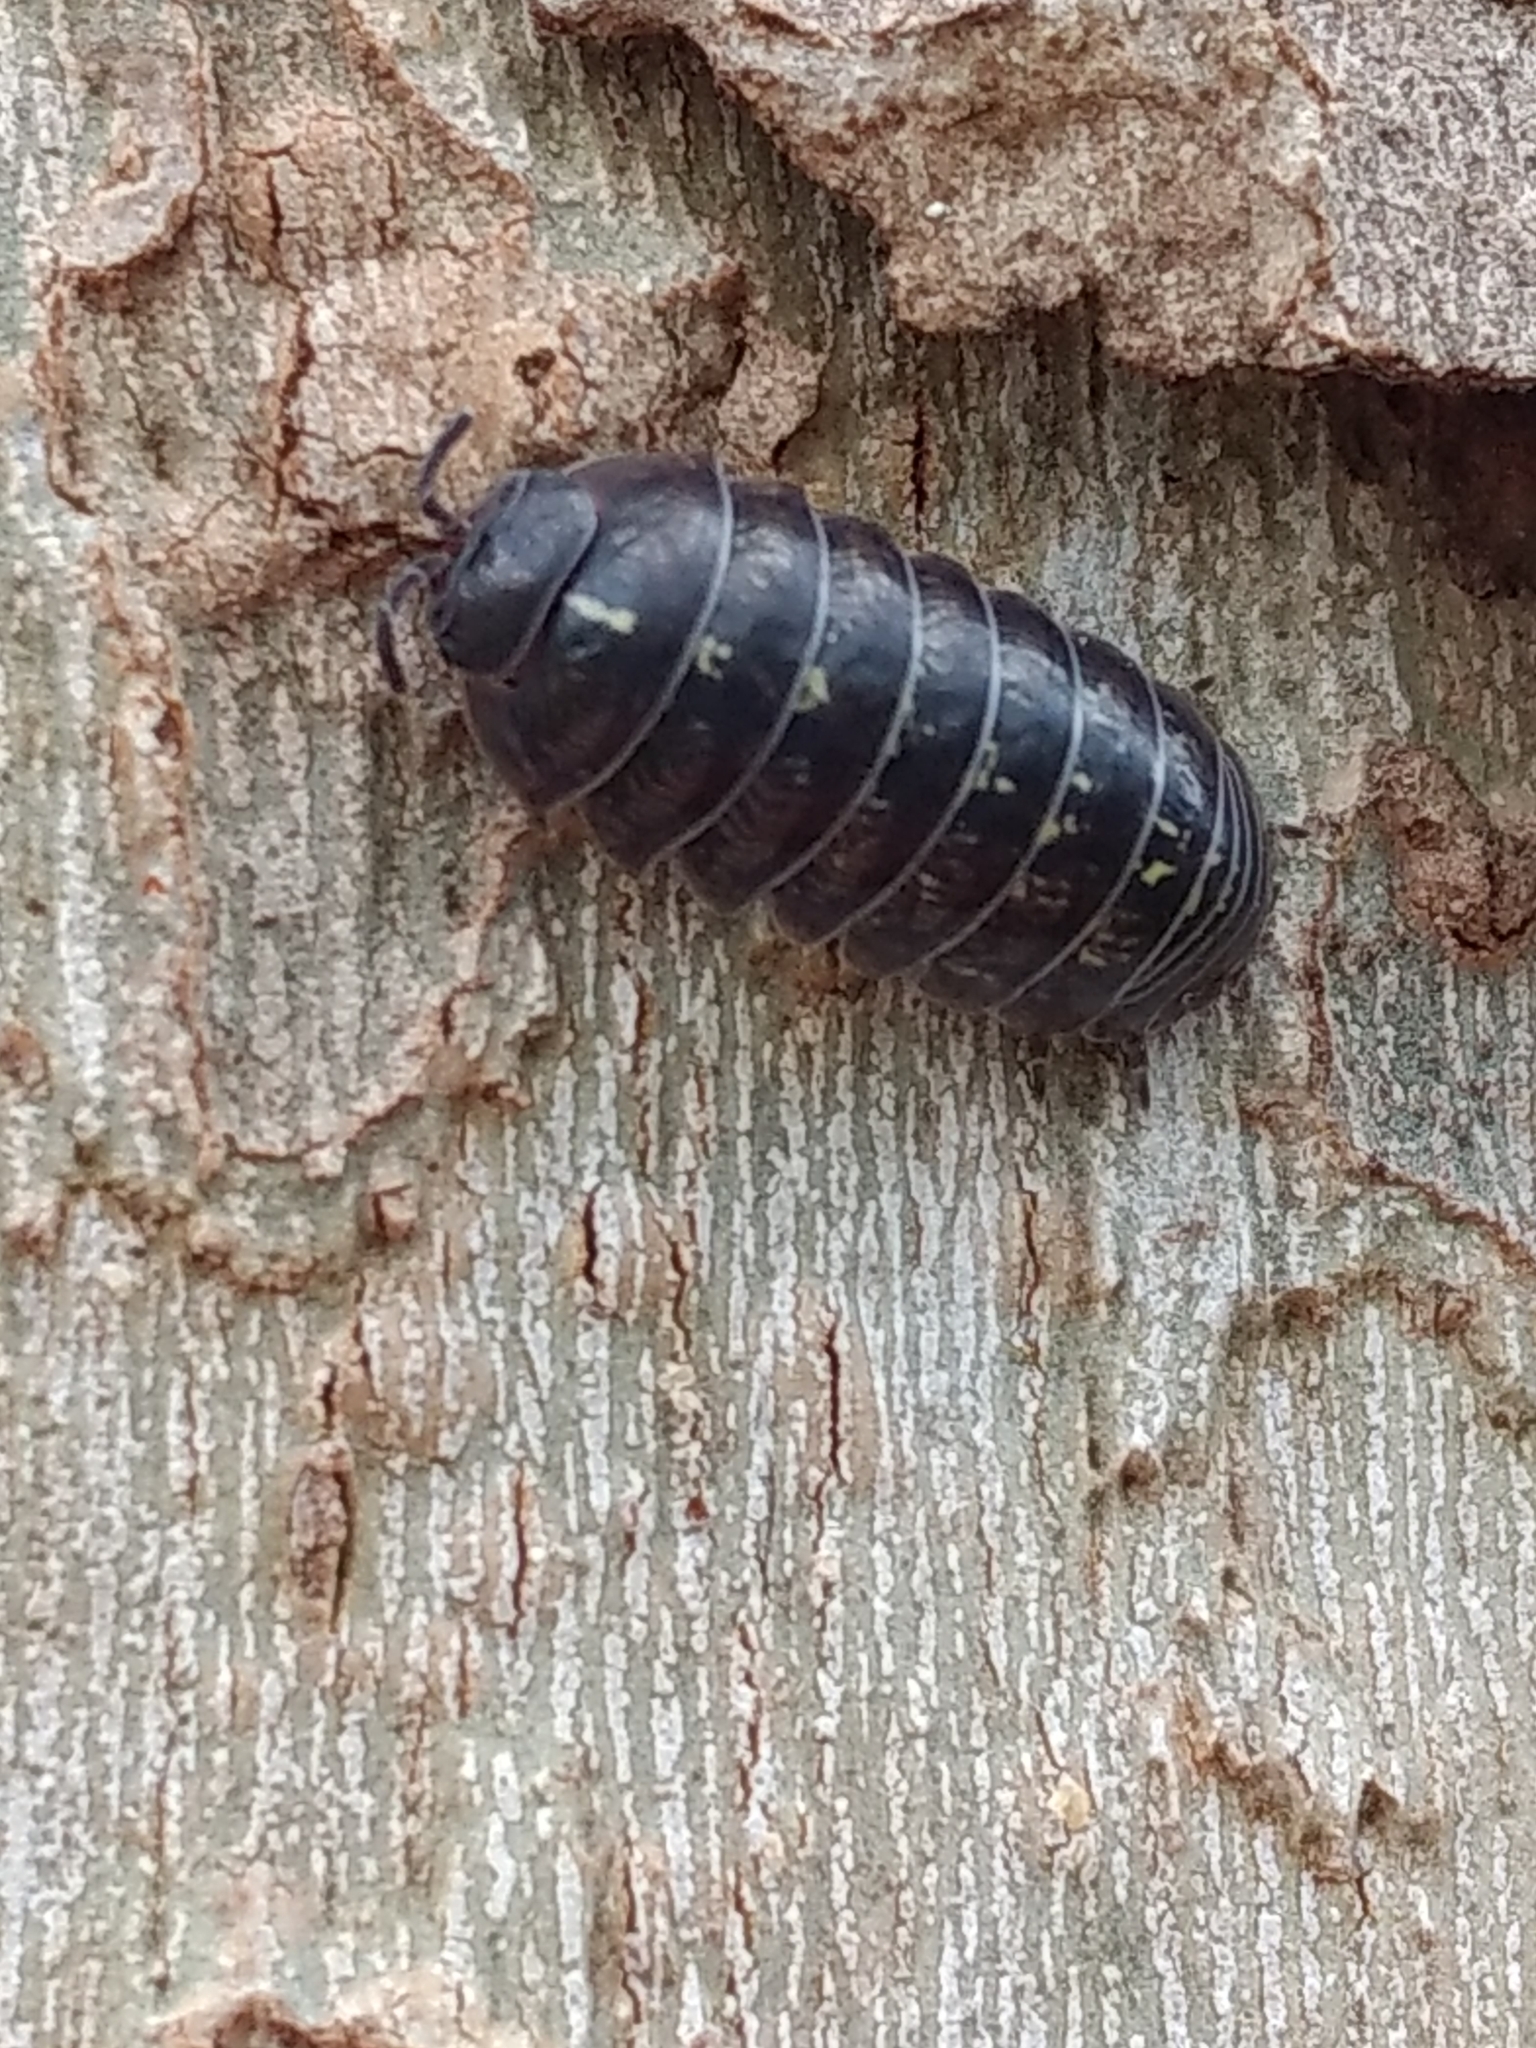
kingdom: Animalia
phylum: Arthropoda
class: Malacostraca
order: Isopoda
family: Armadillidiidae
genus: Armadillidium
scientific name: Armadillidium vulgare
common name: Common pill woodlouse
